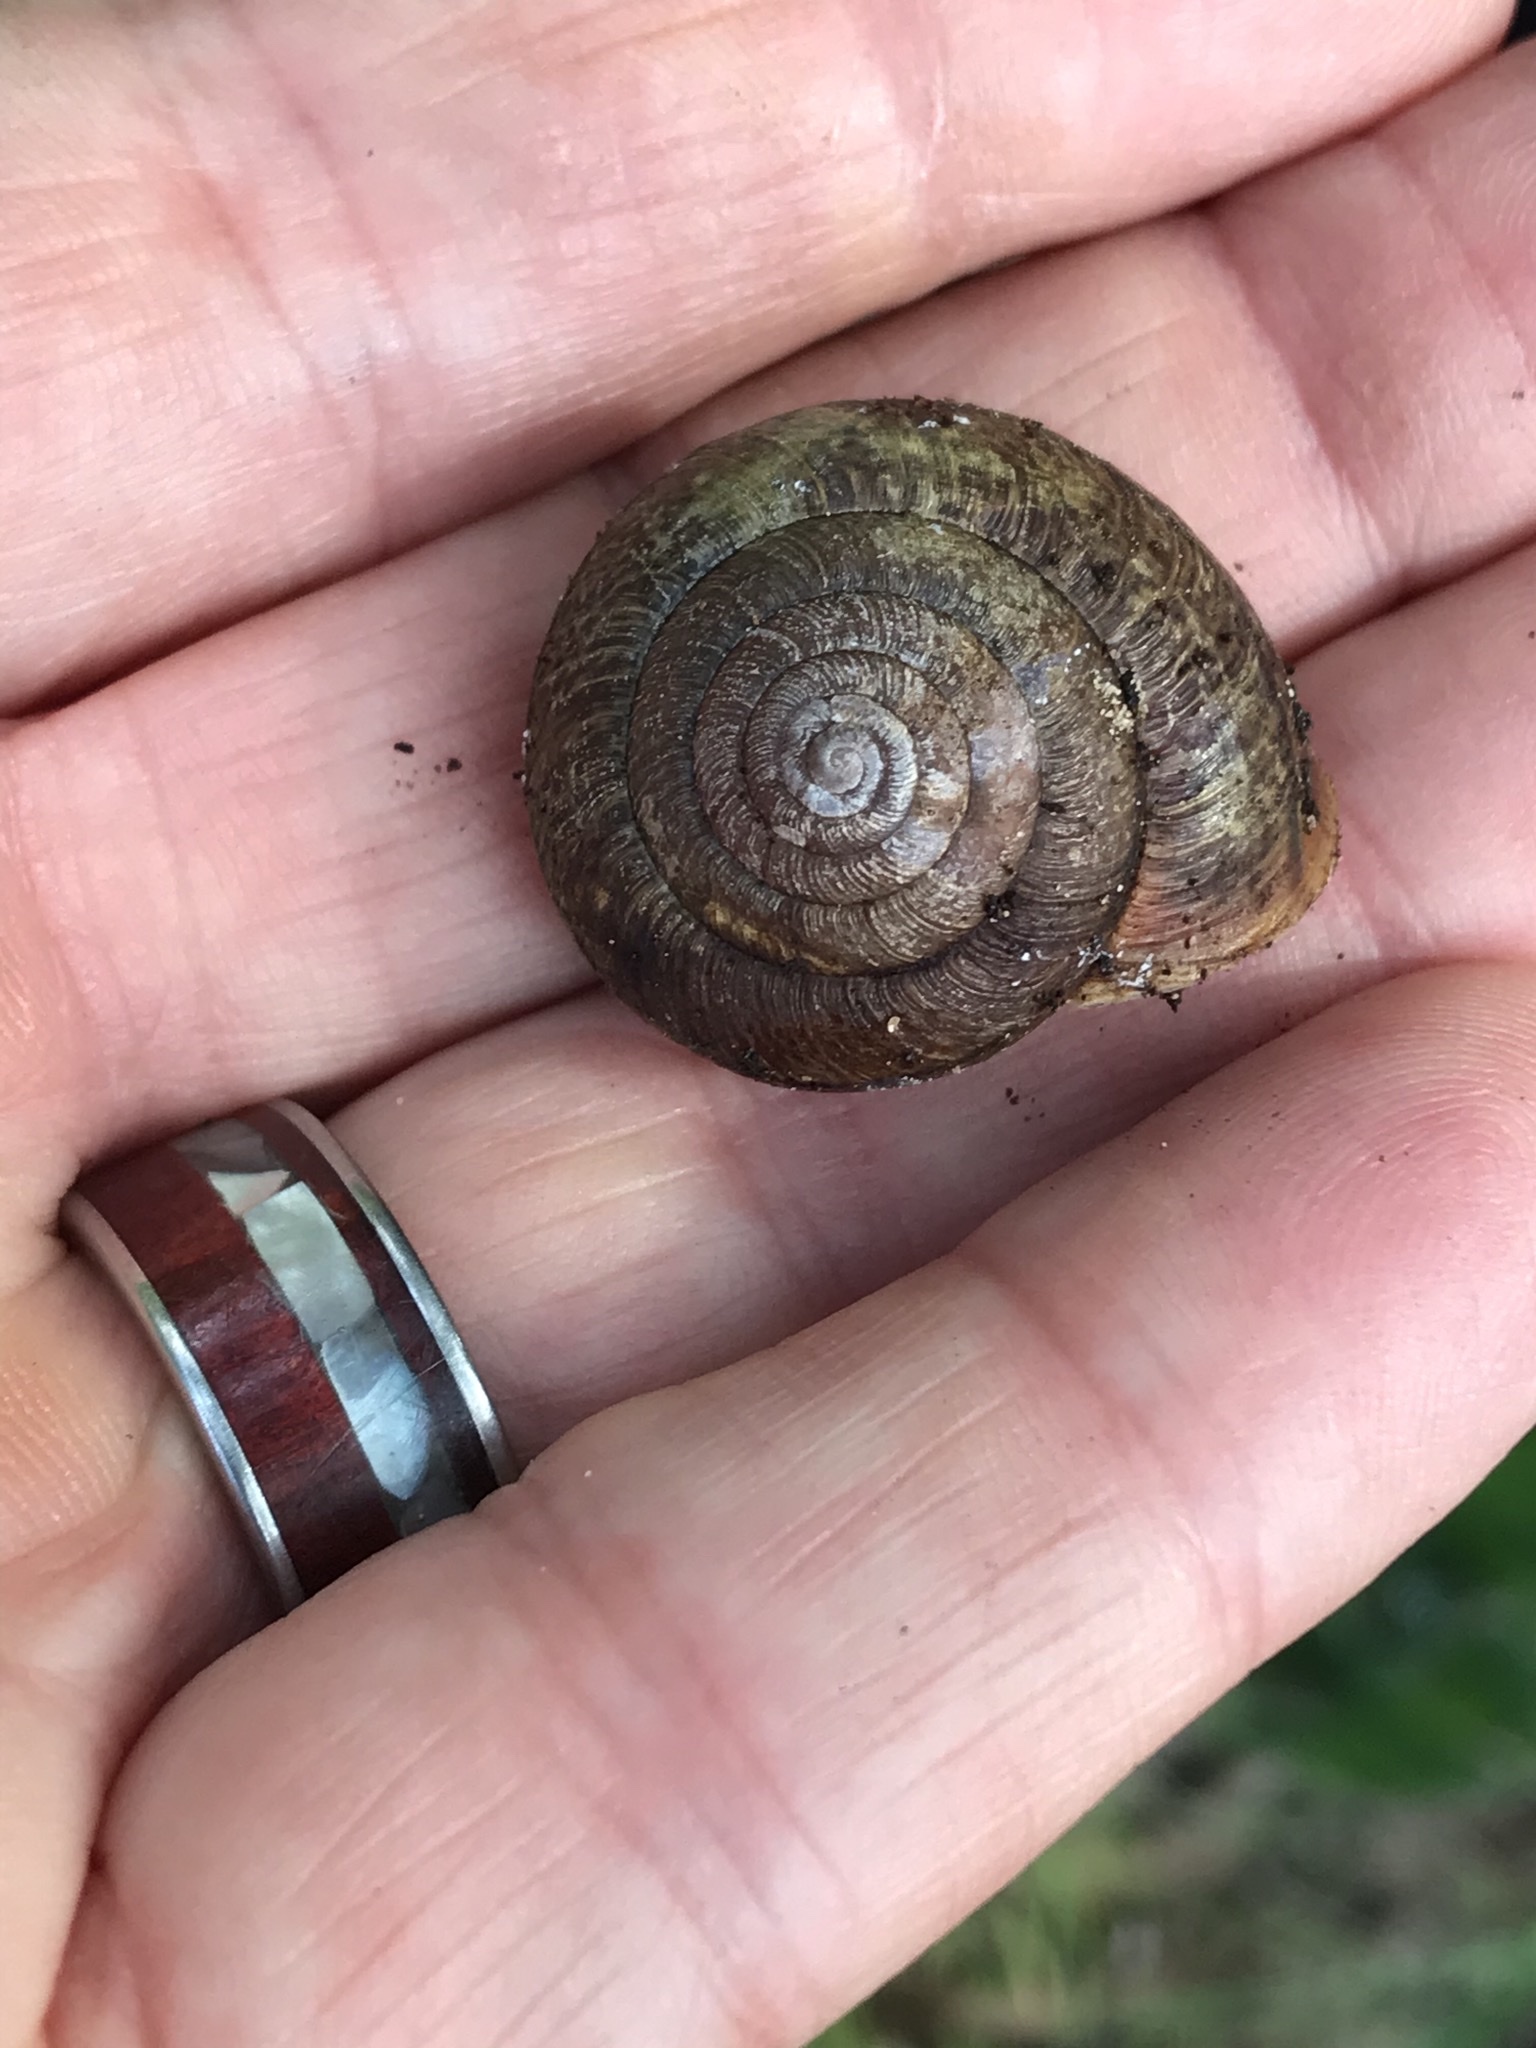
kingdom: Animalia
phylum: Mollusca
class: Gastropoda
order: Stylommatophora
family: Xanthonychidae
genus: Helminthoglypta
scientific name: Helminthoglypta arrosa
